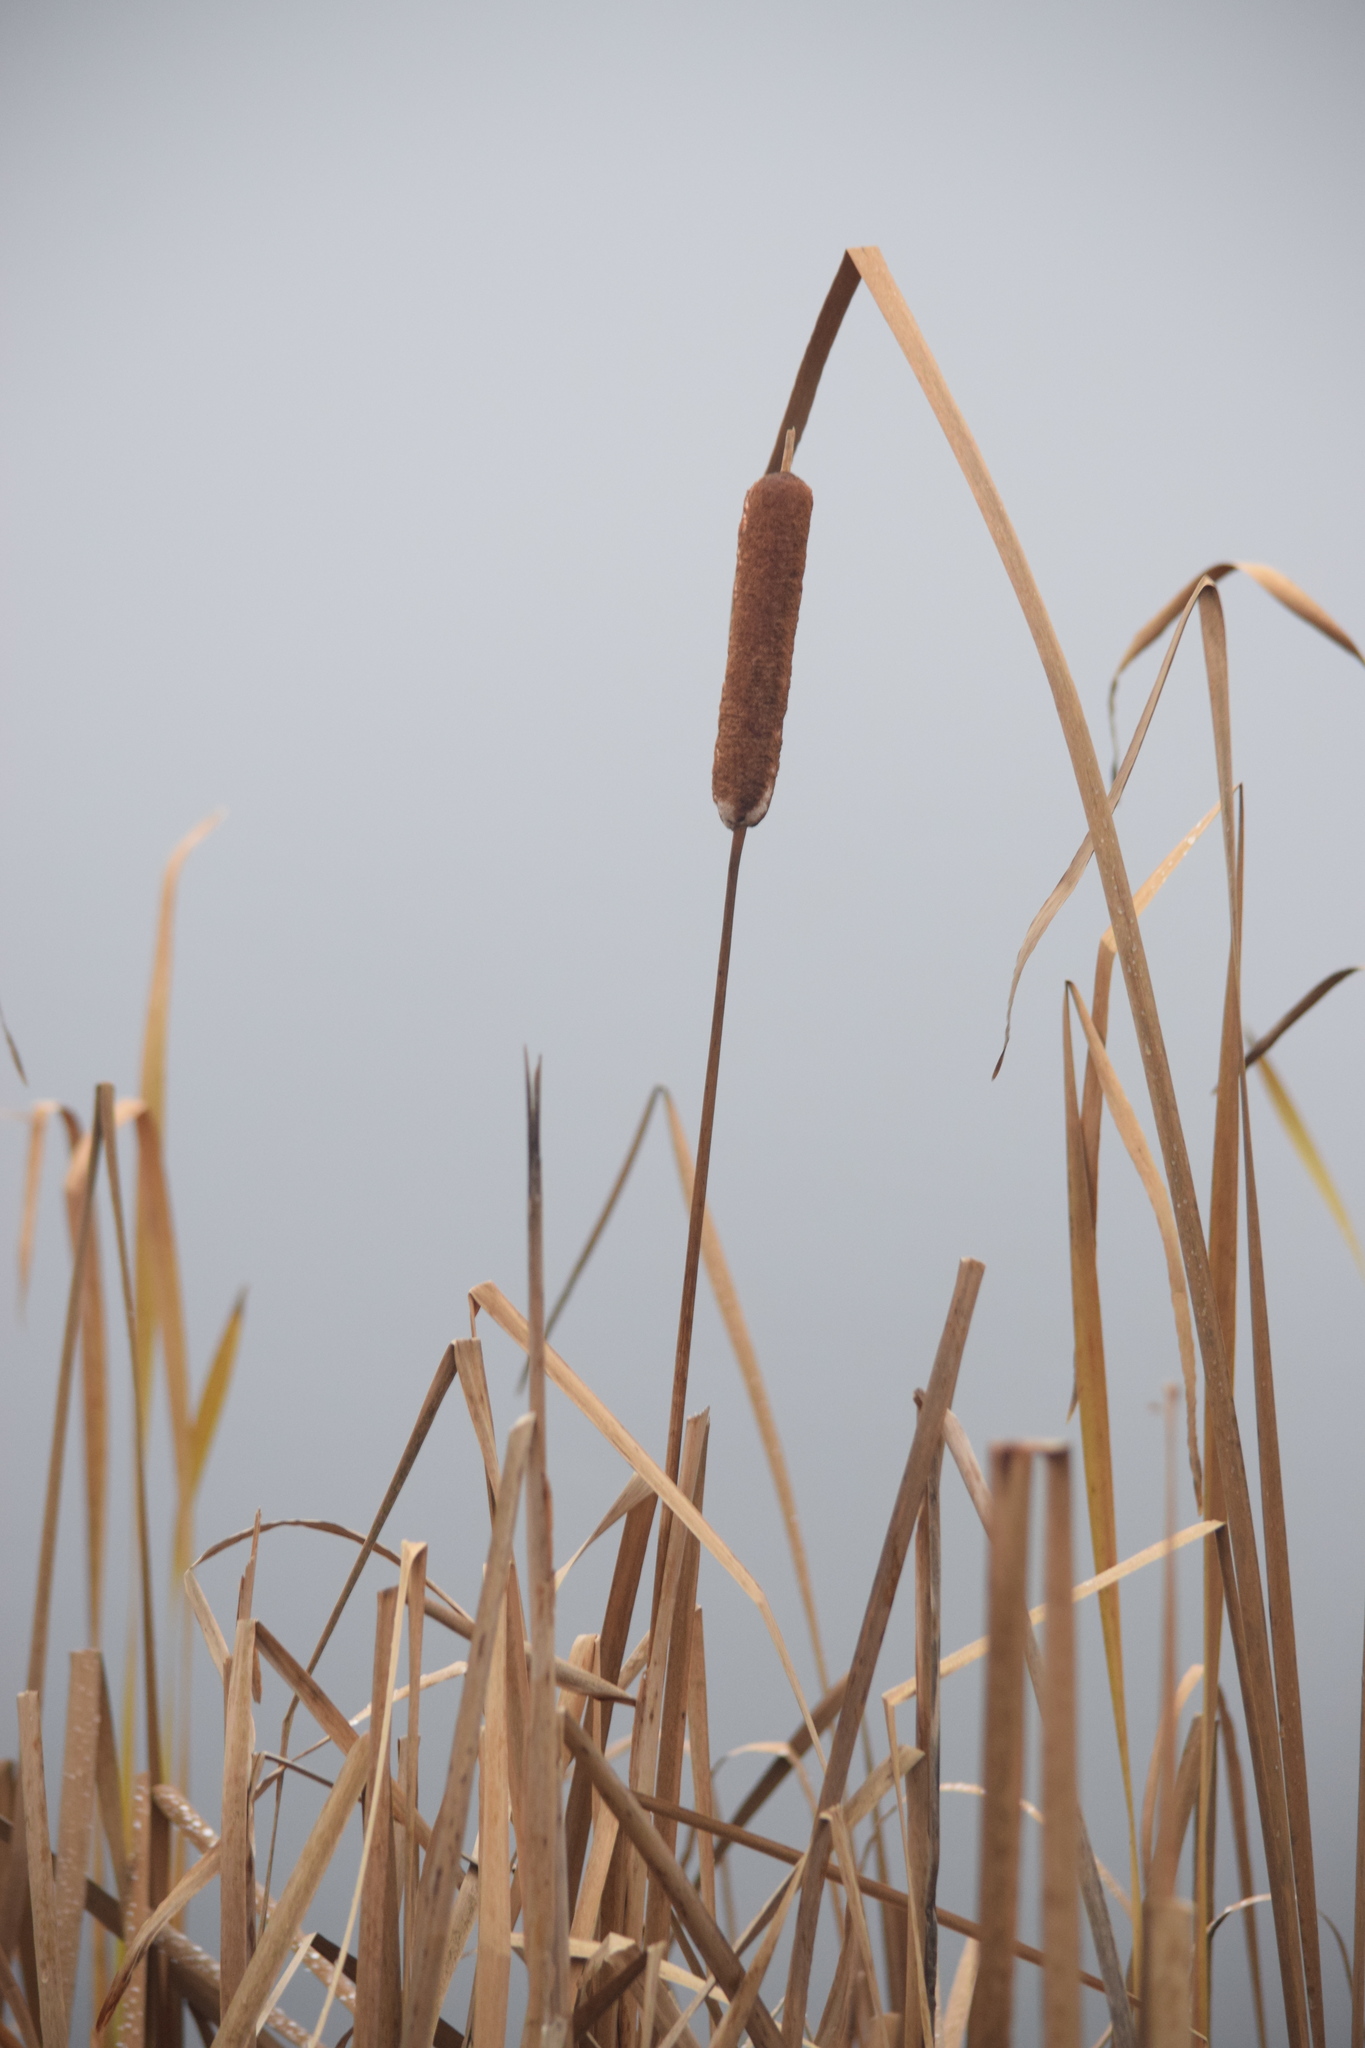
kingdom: Plantae
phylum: Tracheophyta
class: Liliopsida
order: Poales
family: Typhaceae
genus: Typha
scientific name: Typha latifolia
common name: Broadleaf cattail
